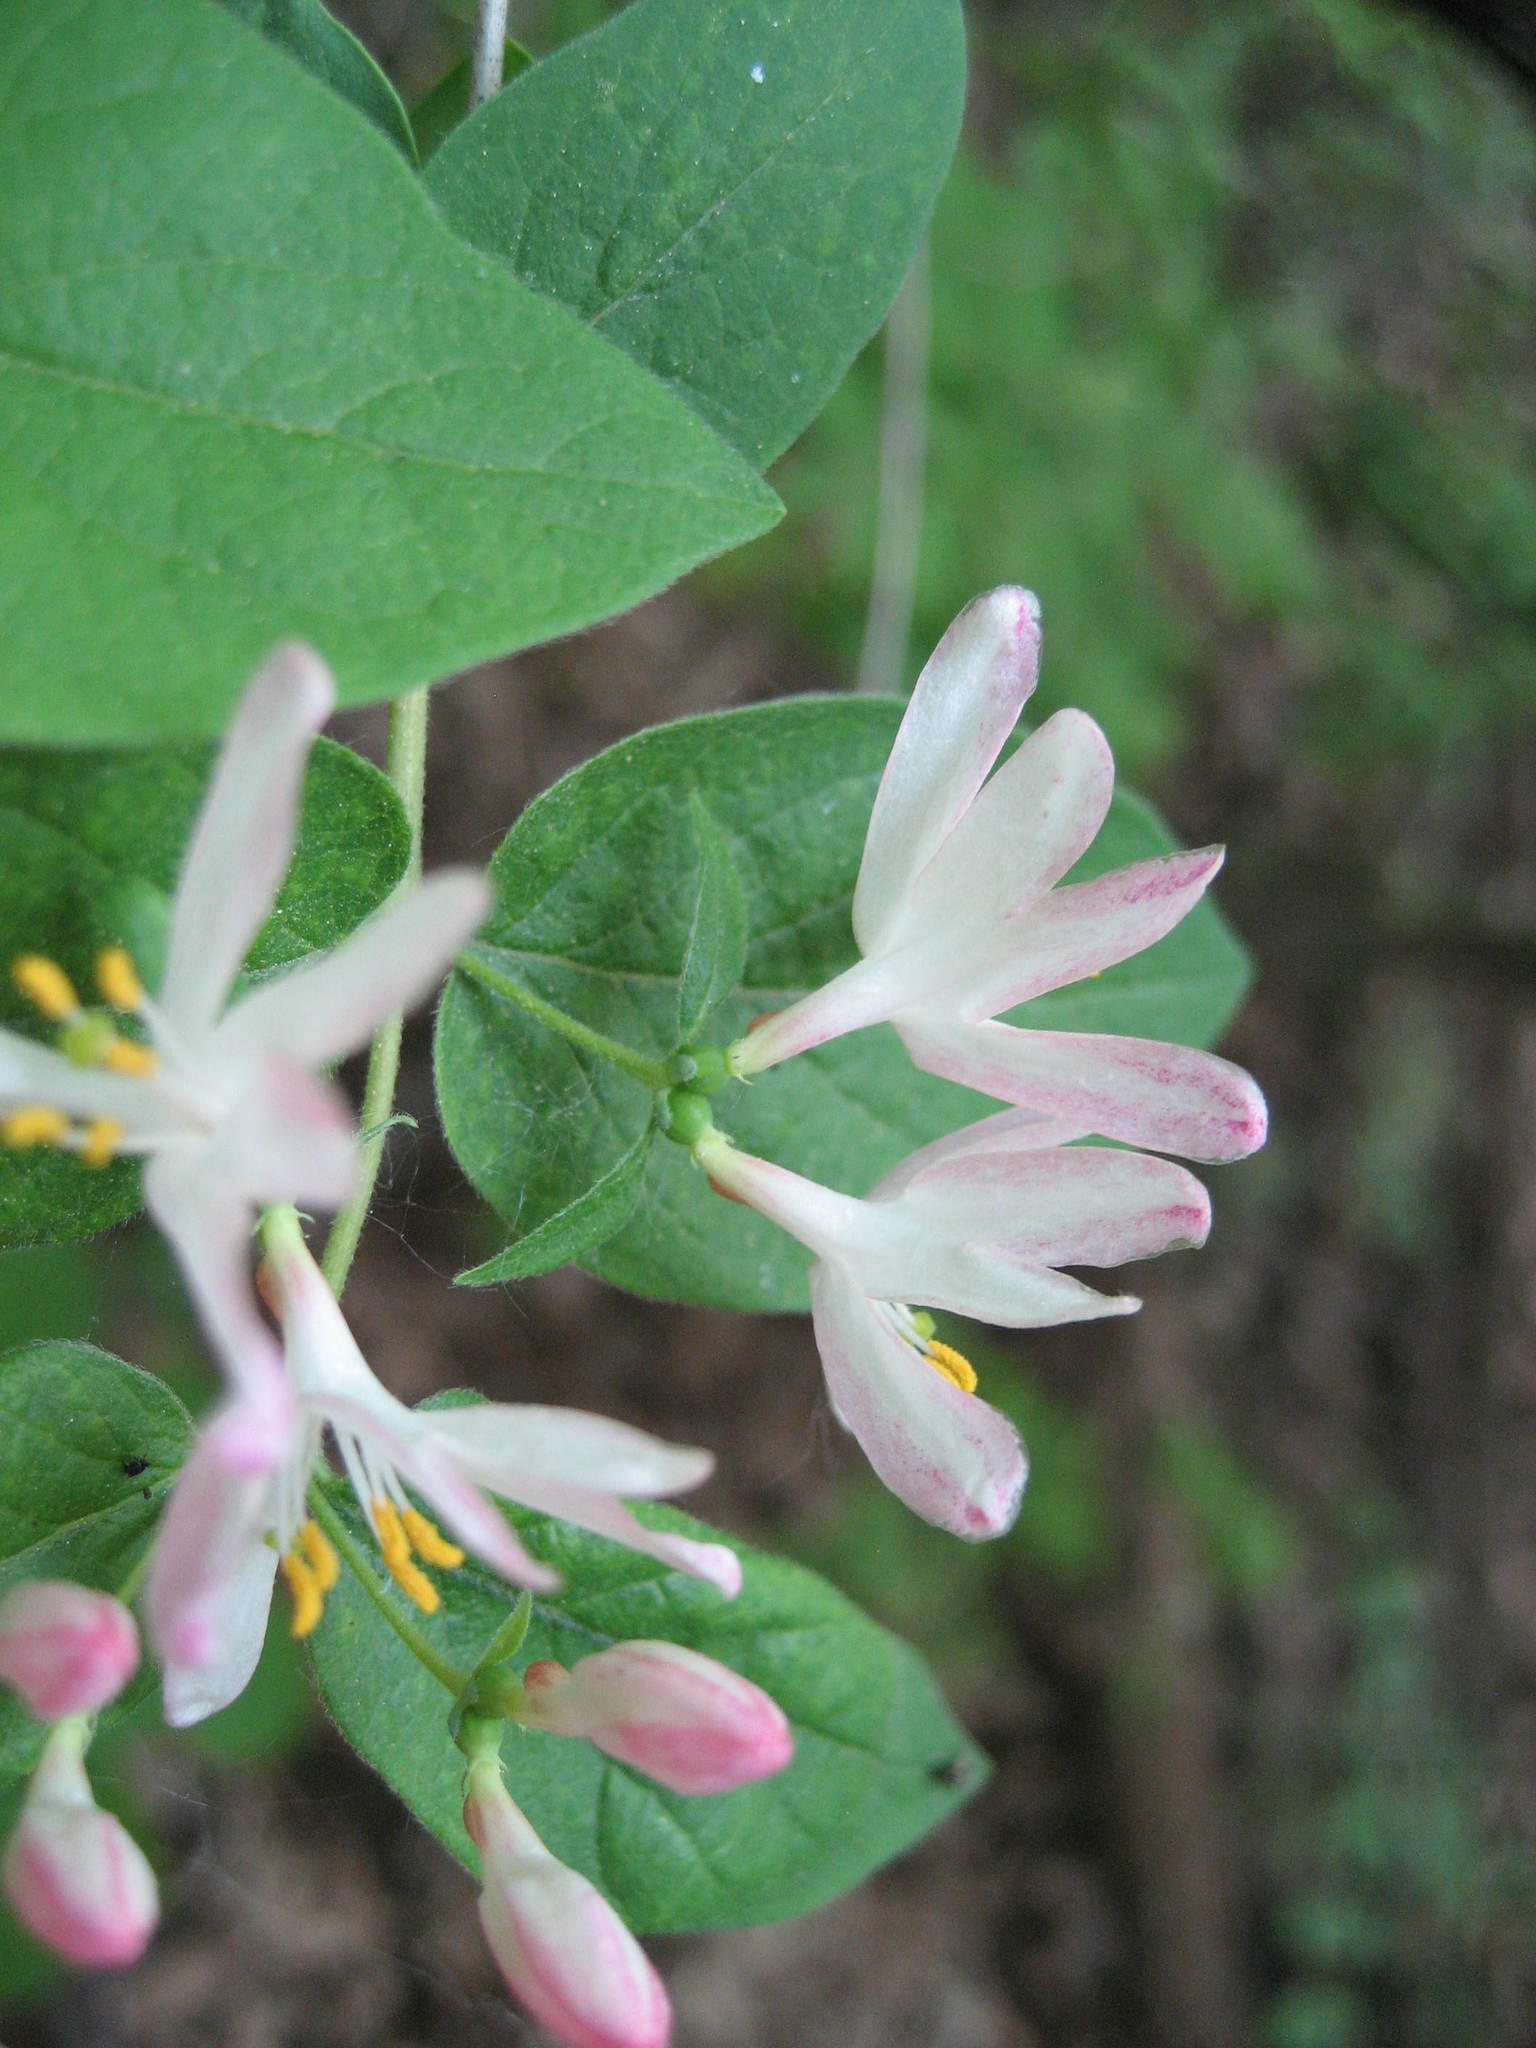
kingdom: Plantae
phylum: Tracheophyta
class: Magnoliopsida
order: Dipsacales
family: Caprifoliaceae
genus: Lonicera
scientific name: Lonicera bella
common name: Bell's honeysuckle
